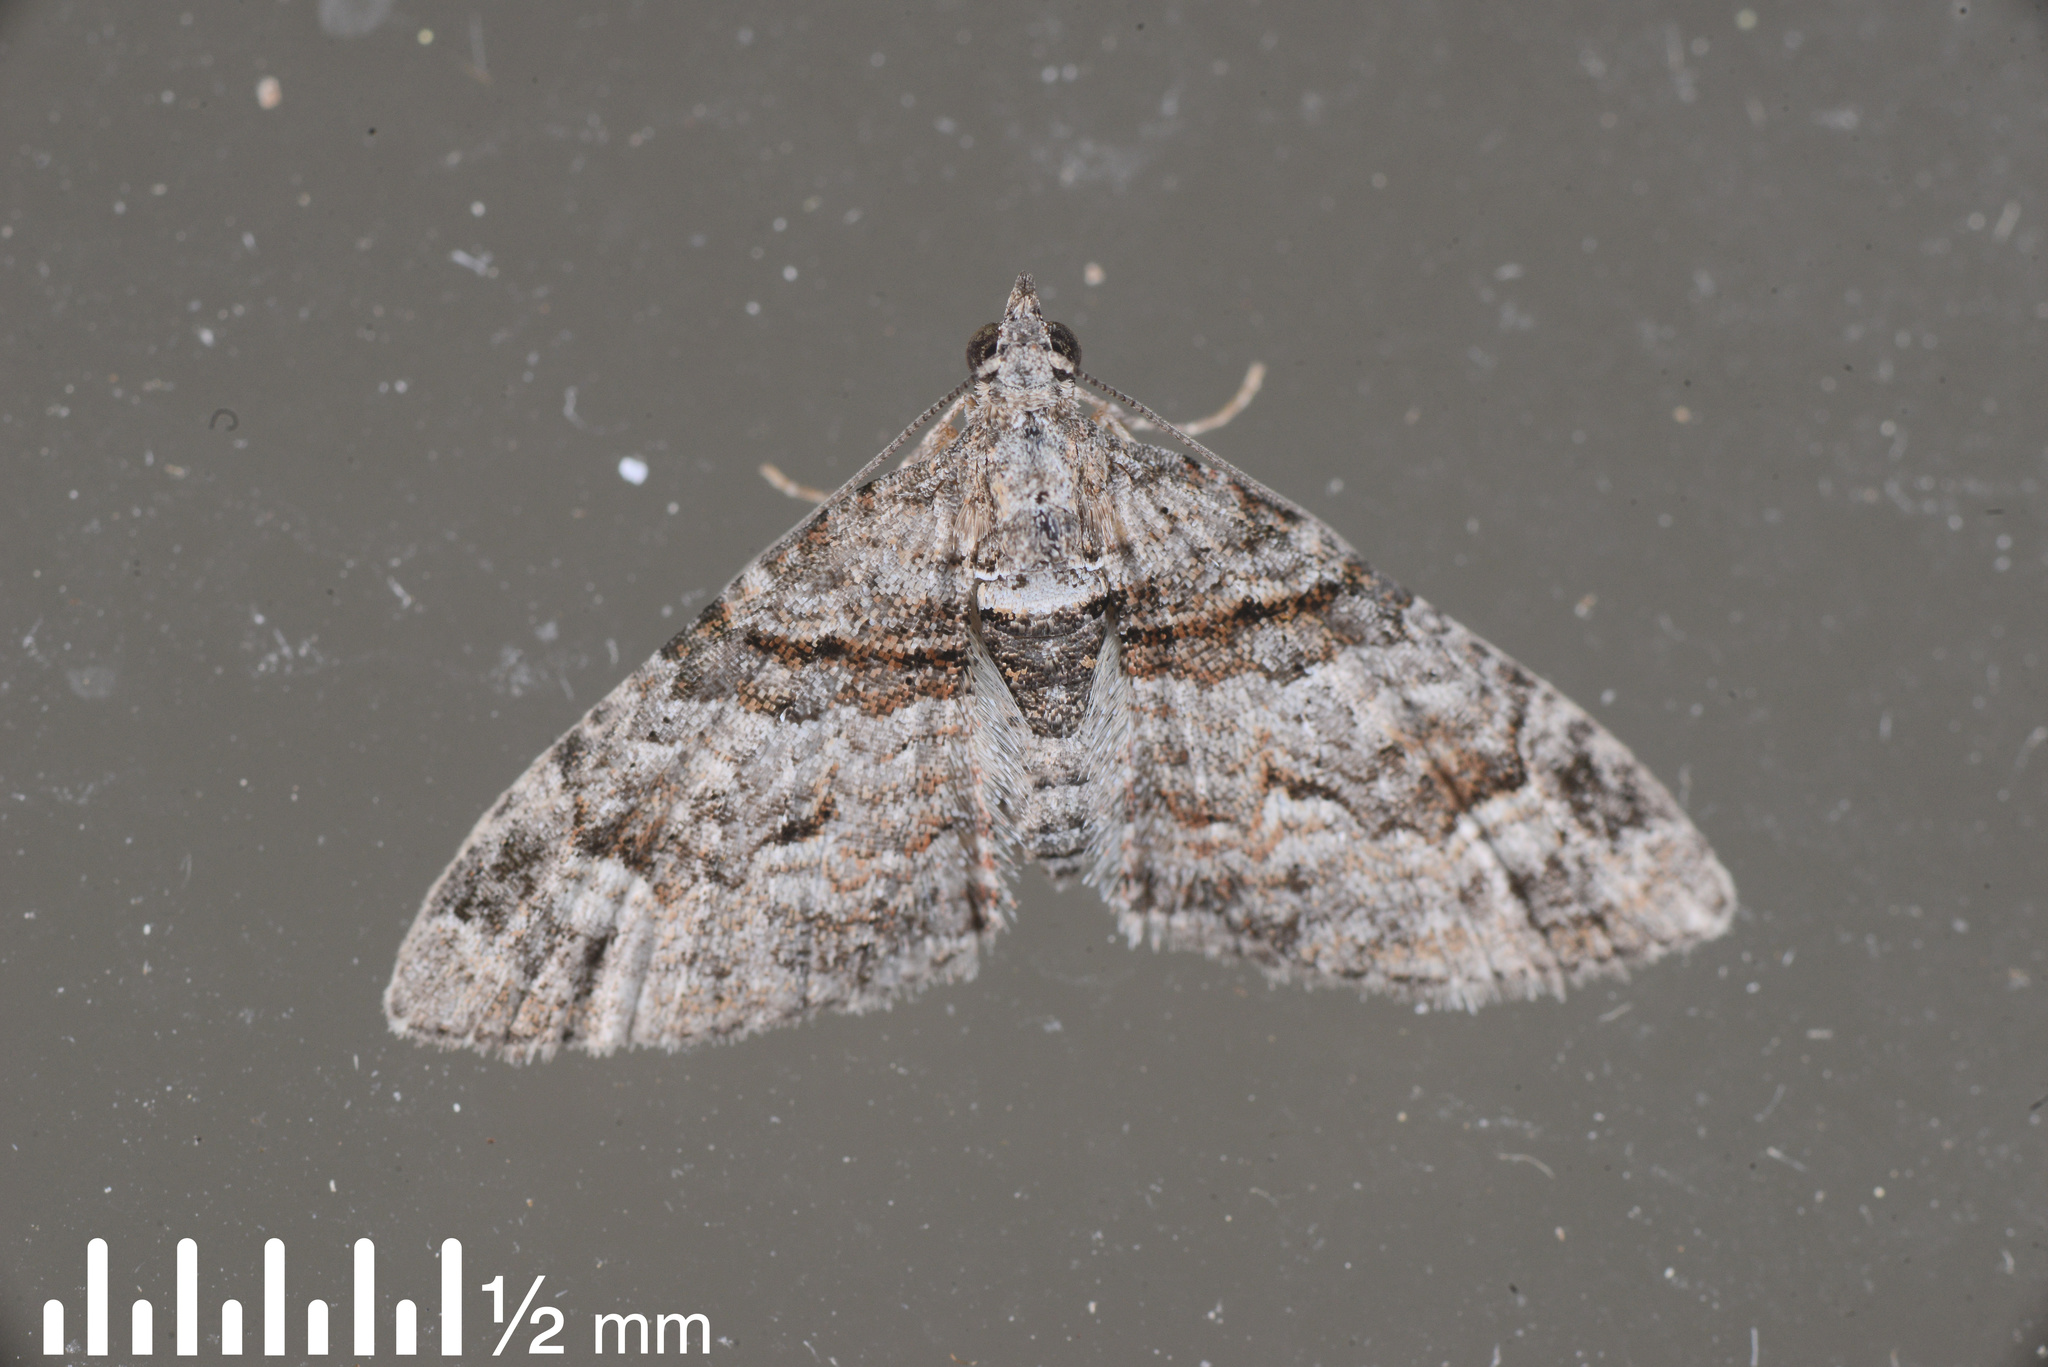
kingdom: Animalia
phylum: Arthropoda
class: Insecta
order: Lepidoptera
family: Geometridae
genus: Phrissogonus
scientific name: Phrissogonus laticostata
